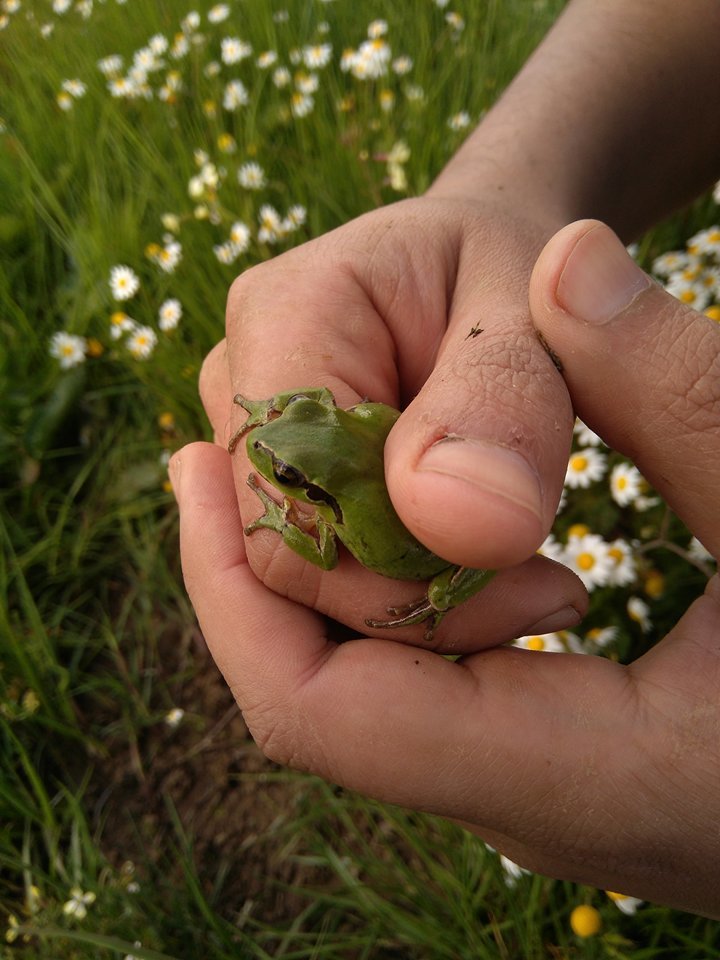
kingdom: Animalia
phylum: Chordata
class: Amphibia
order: Anura
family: Hylidae
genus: Hyla
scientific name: Hyla meridionalis
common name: Stripeless tree frog
